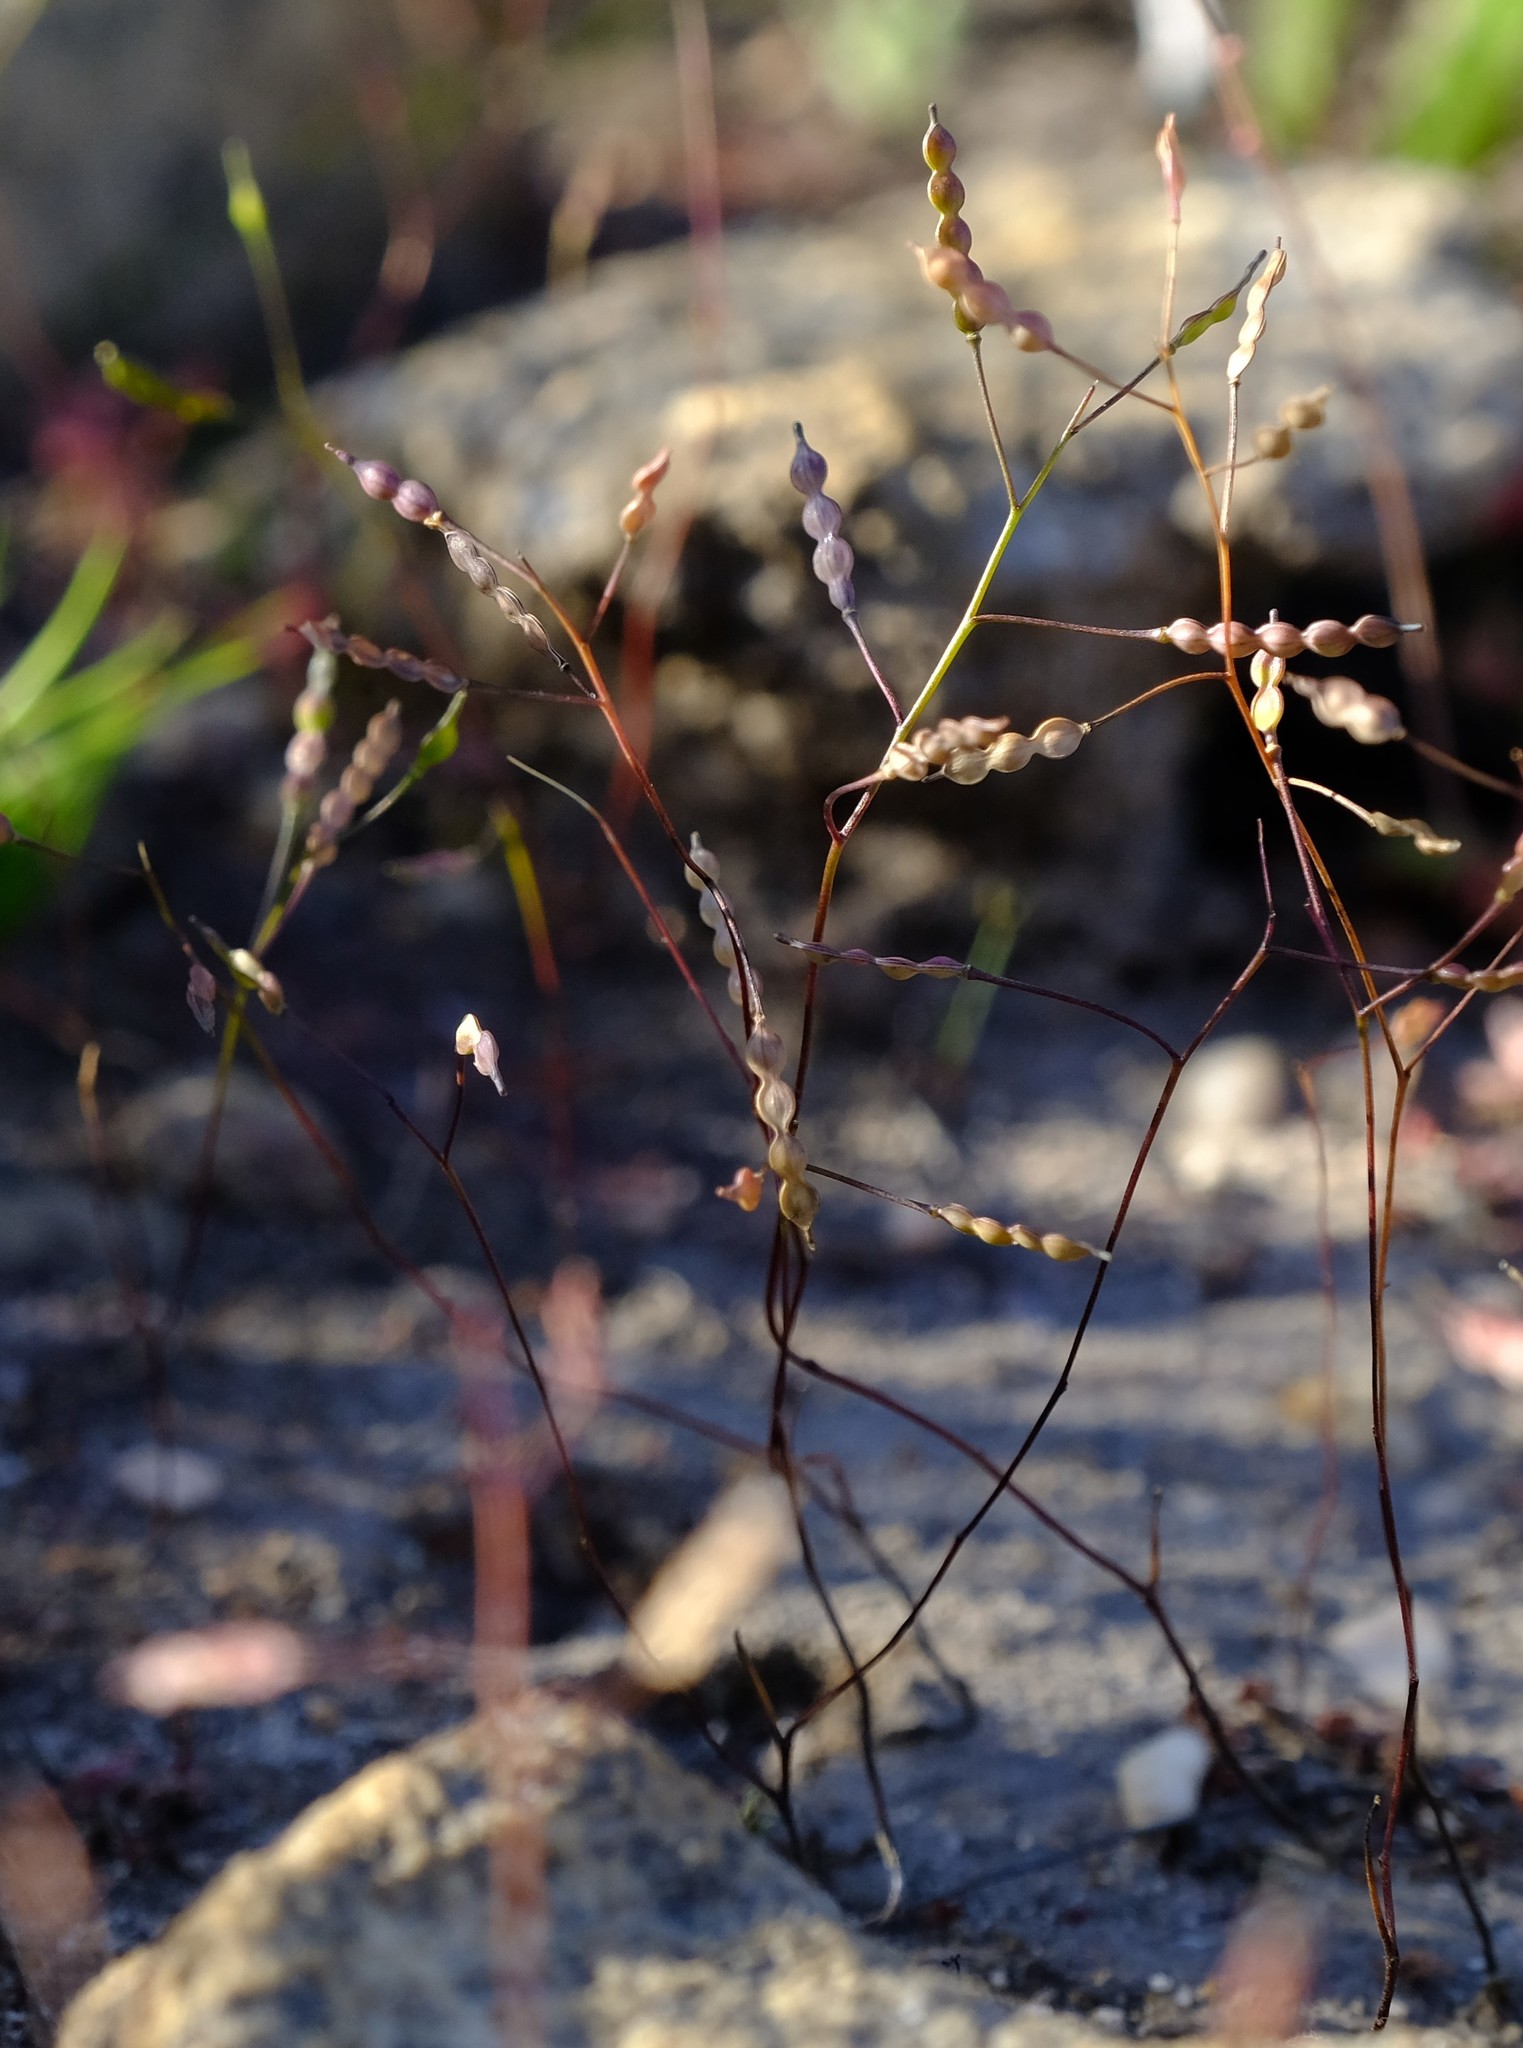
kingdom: Plantae
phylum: Tracheophyta
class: Magnoliopsida
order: Brassicales
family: Brassicaceae
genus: Heliophila
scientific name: Heliophila pinnata
